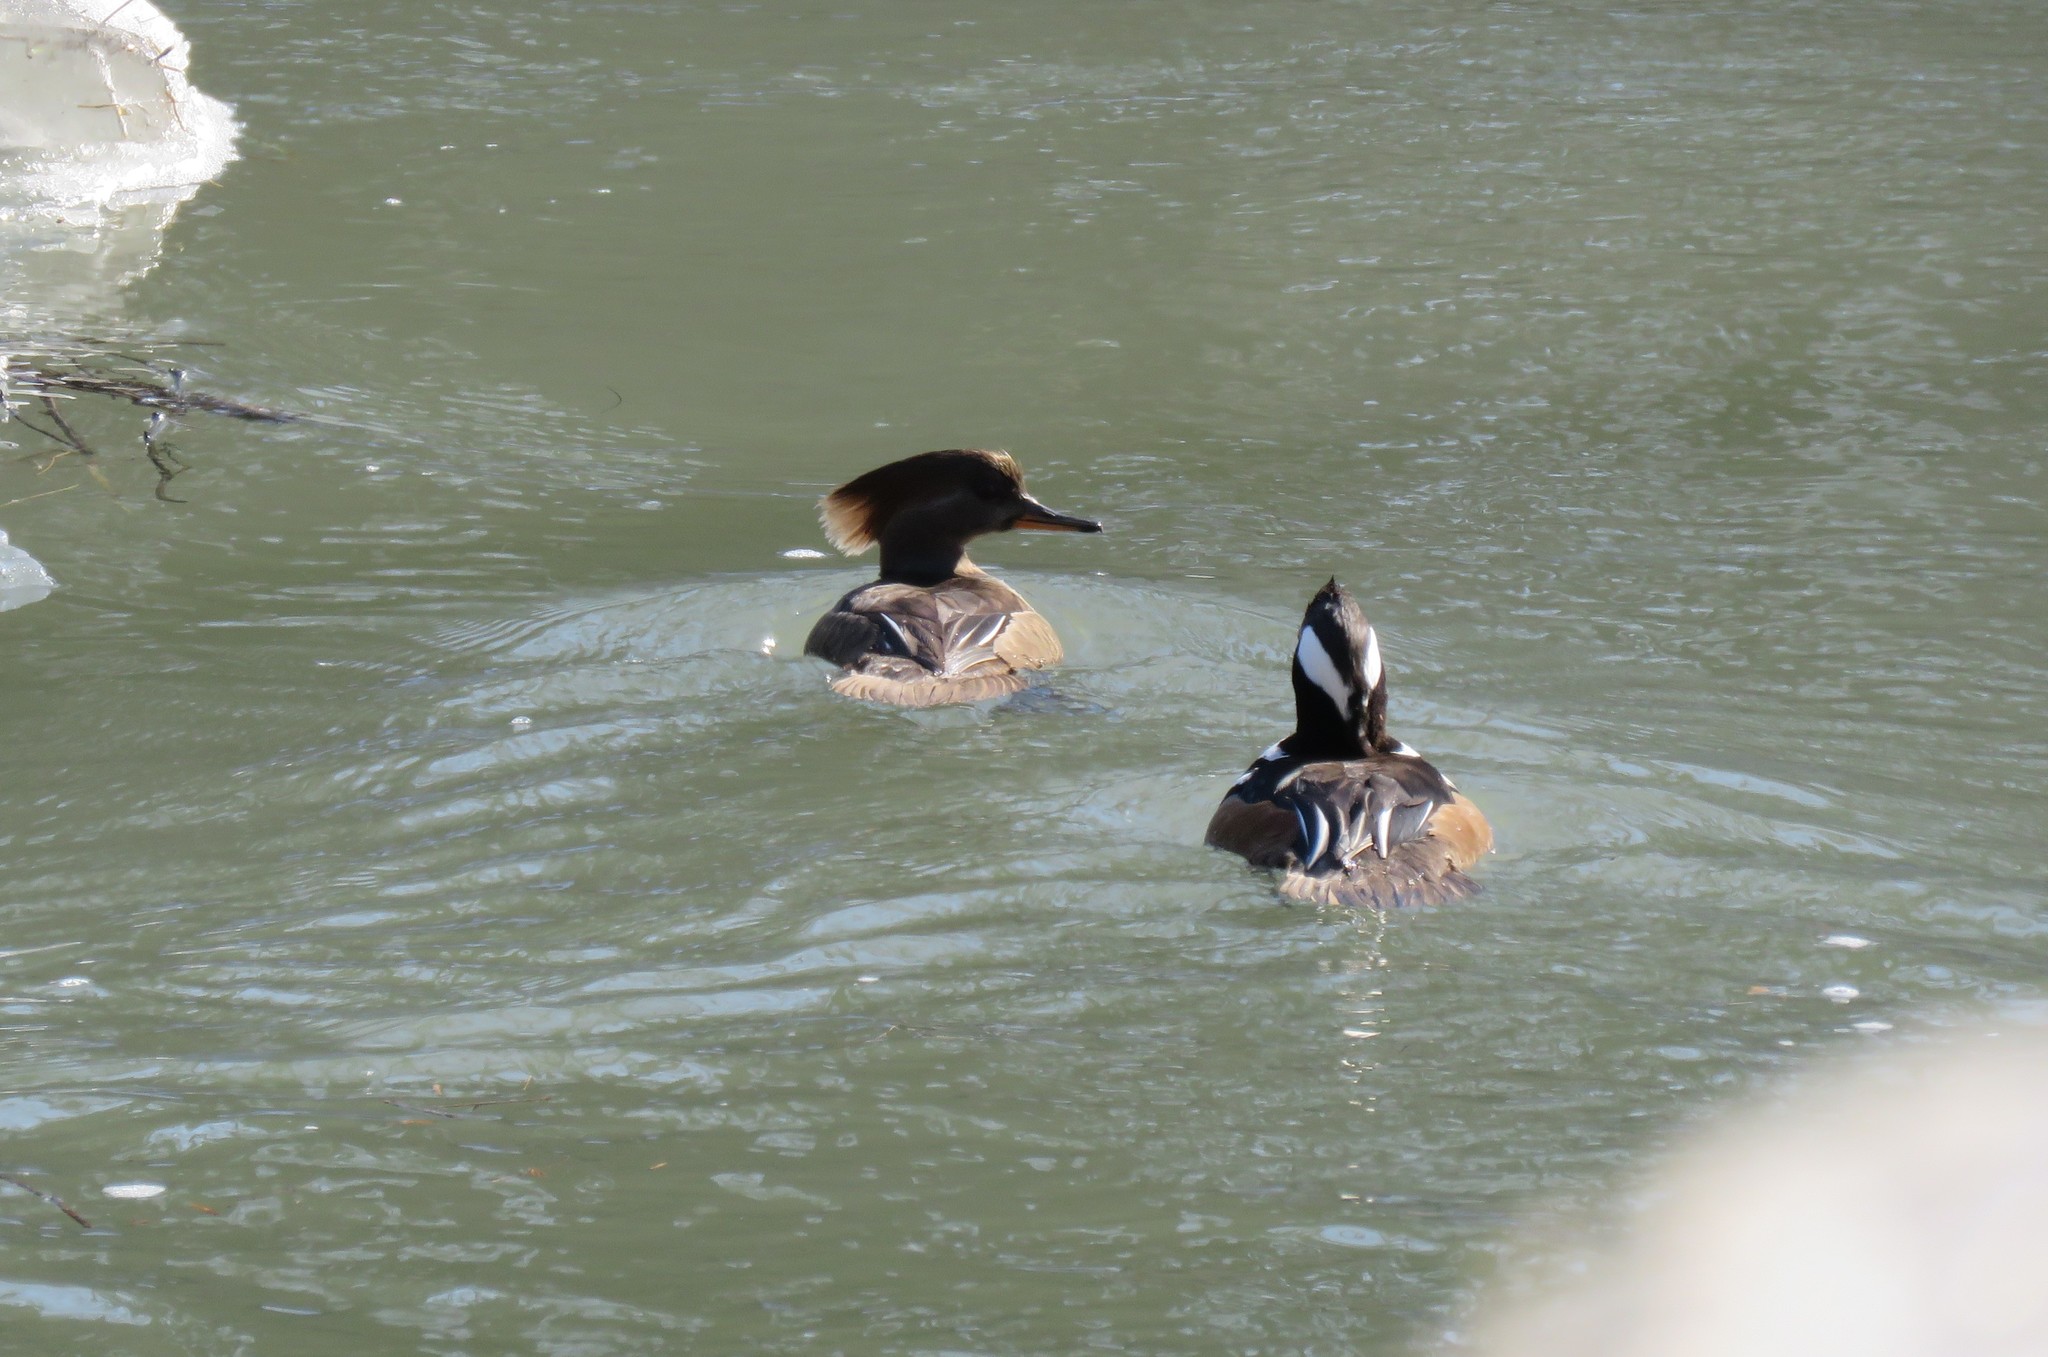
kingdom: Animalia
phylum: Chordata
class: Aves
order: Anseriformes
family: Anatidae
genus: Lophodytes
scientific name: Lophodytes cucullatus
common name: Hooded merganser
